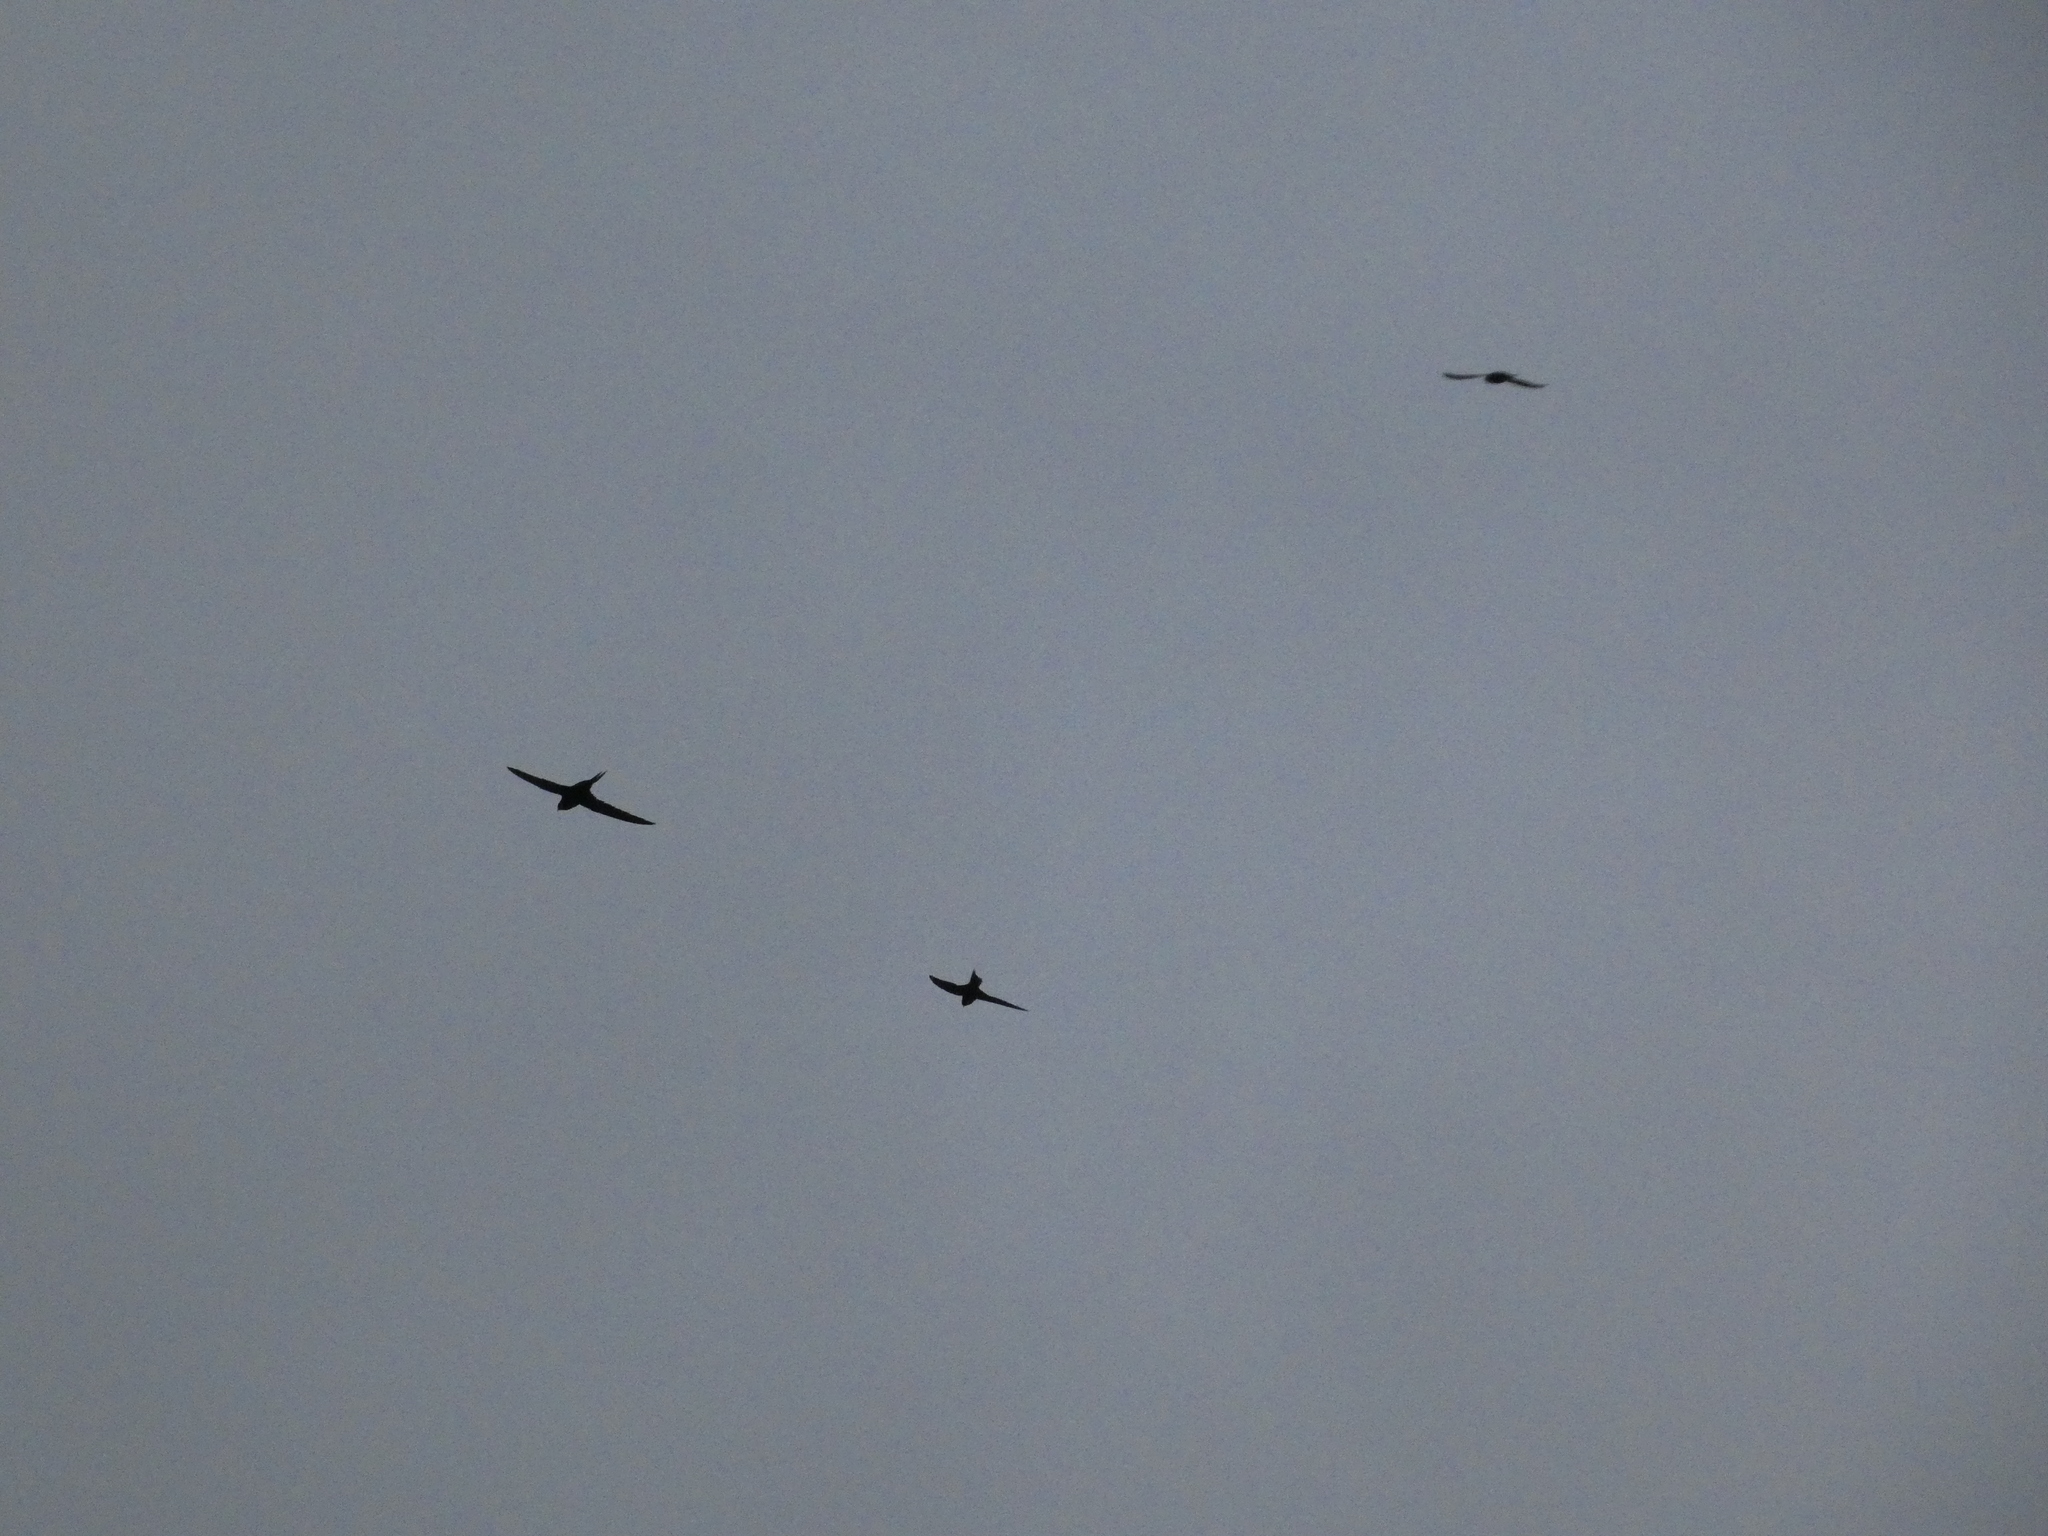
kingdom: Animalia
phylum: Chordata
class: Aves
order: Apodiformes
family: Apodidae
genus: Apus
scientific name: Apus apus
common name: Common swift
